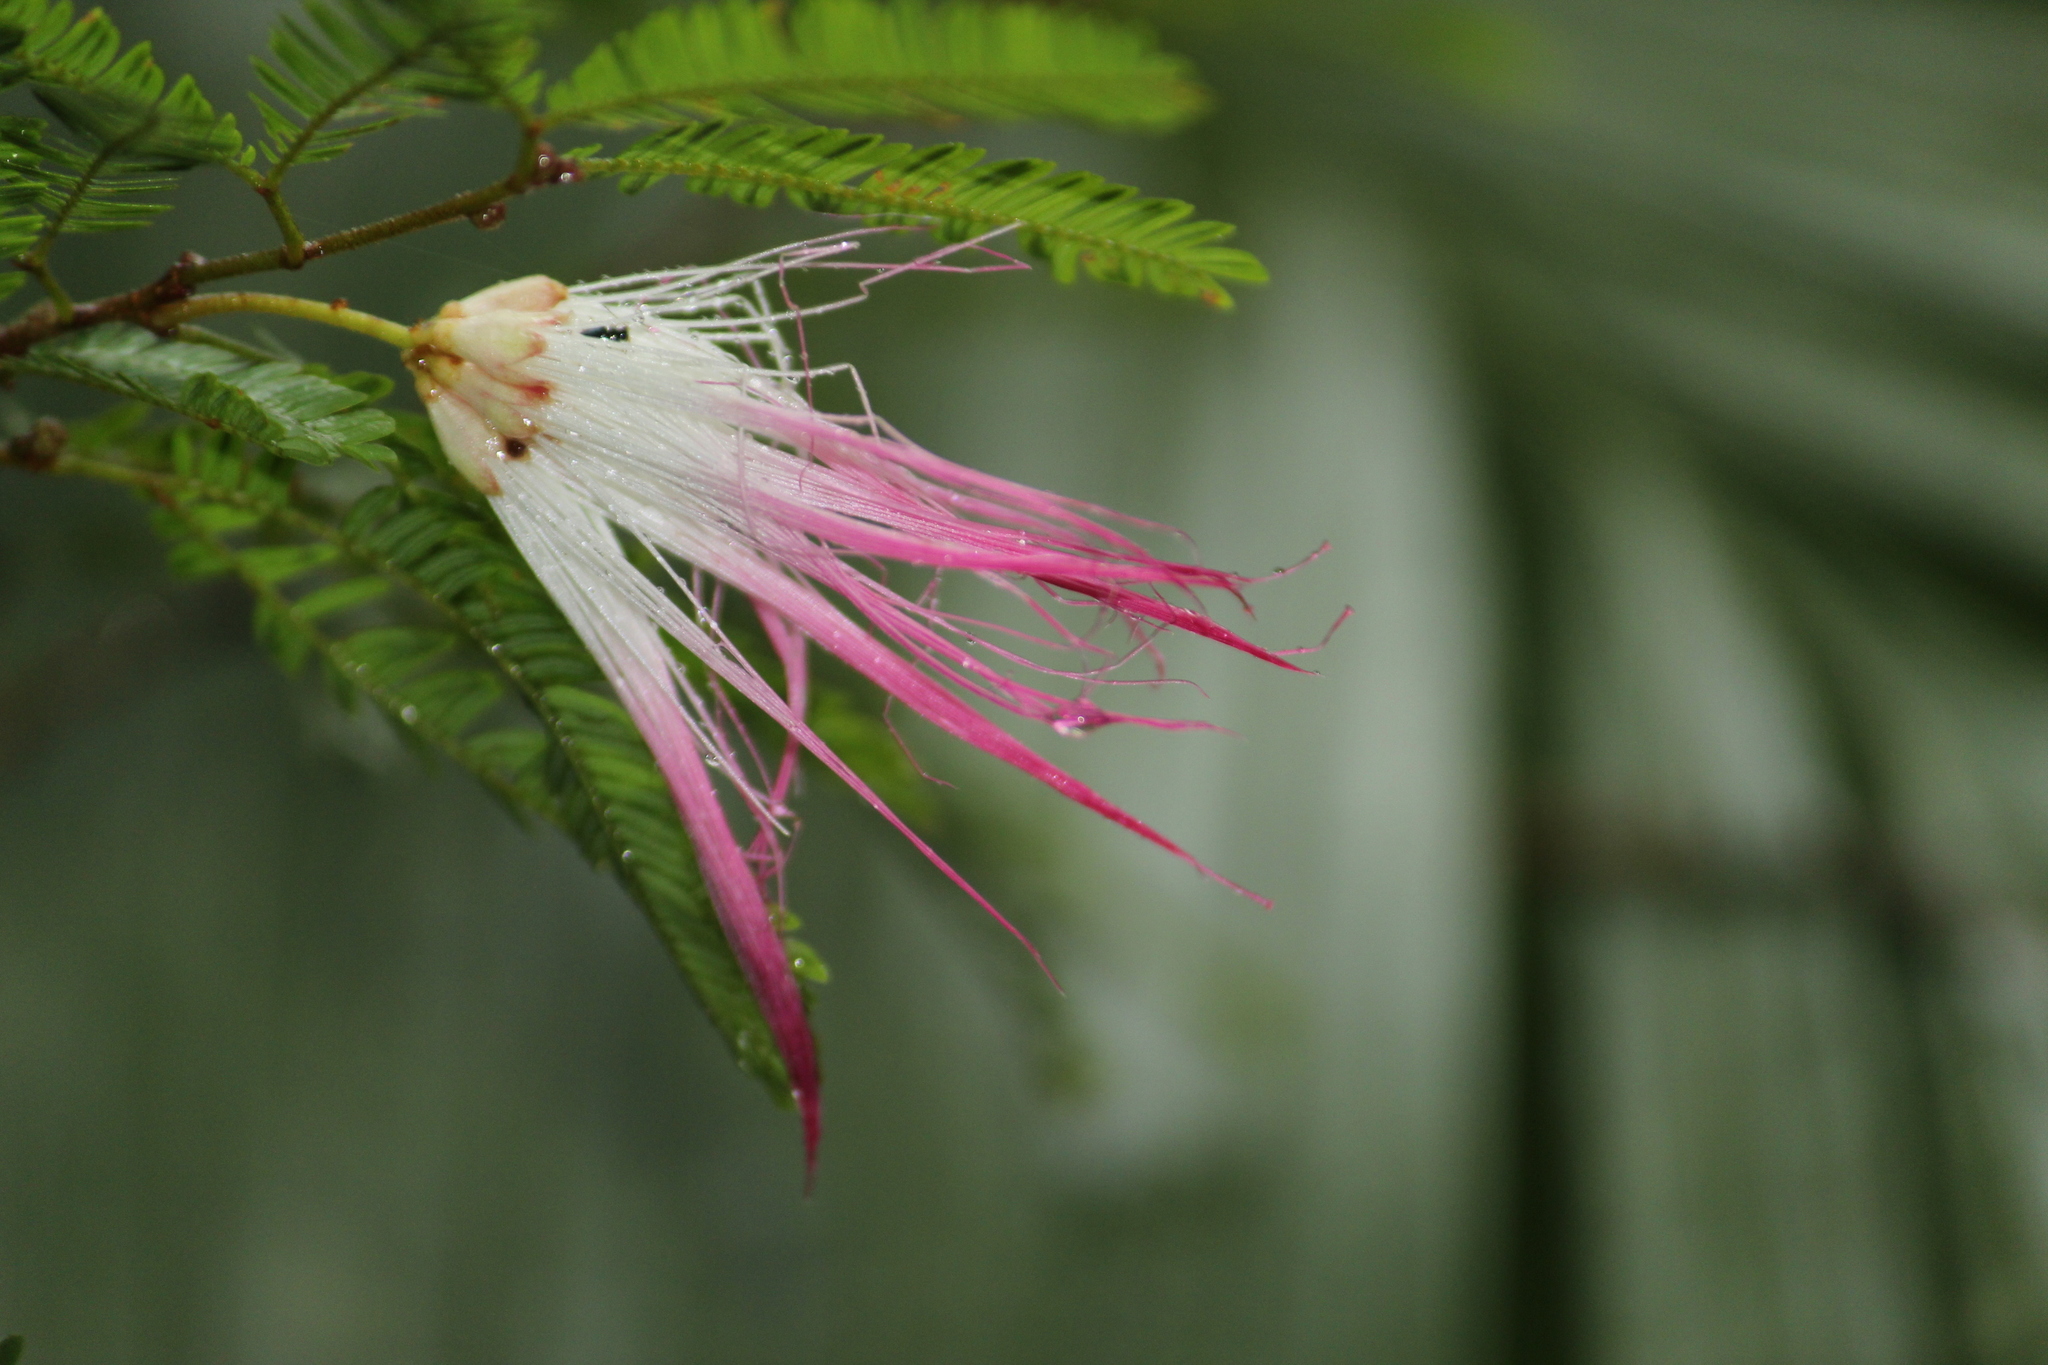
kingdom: Plantae
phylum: Tracheophyta
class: Magnoliopsida
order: Fabales
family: Fabaceae
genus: Calliandra
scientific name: Calliandra selloi
